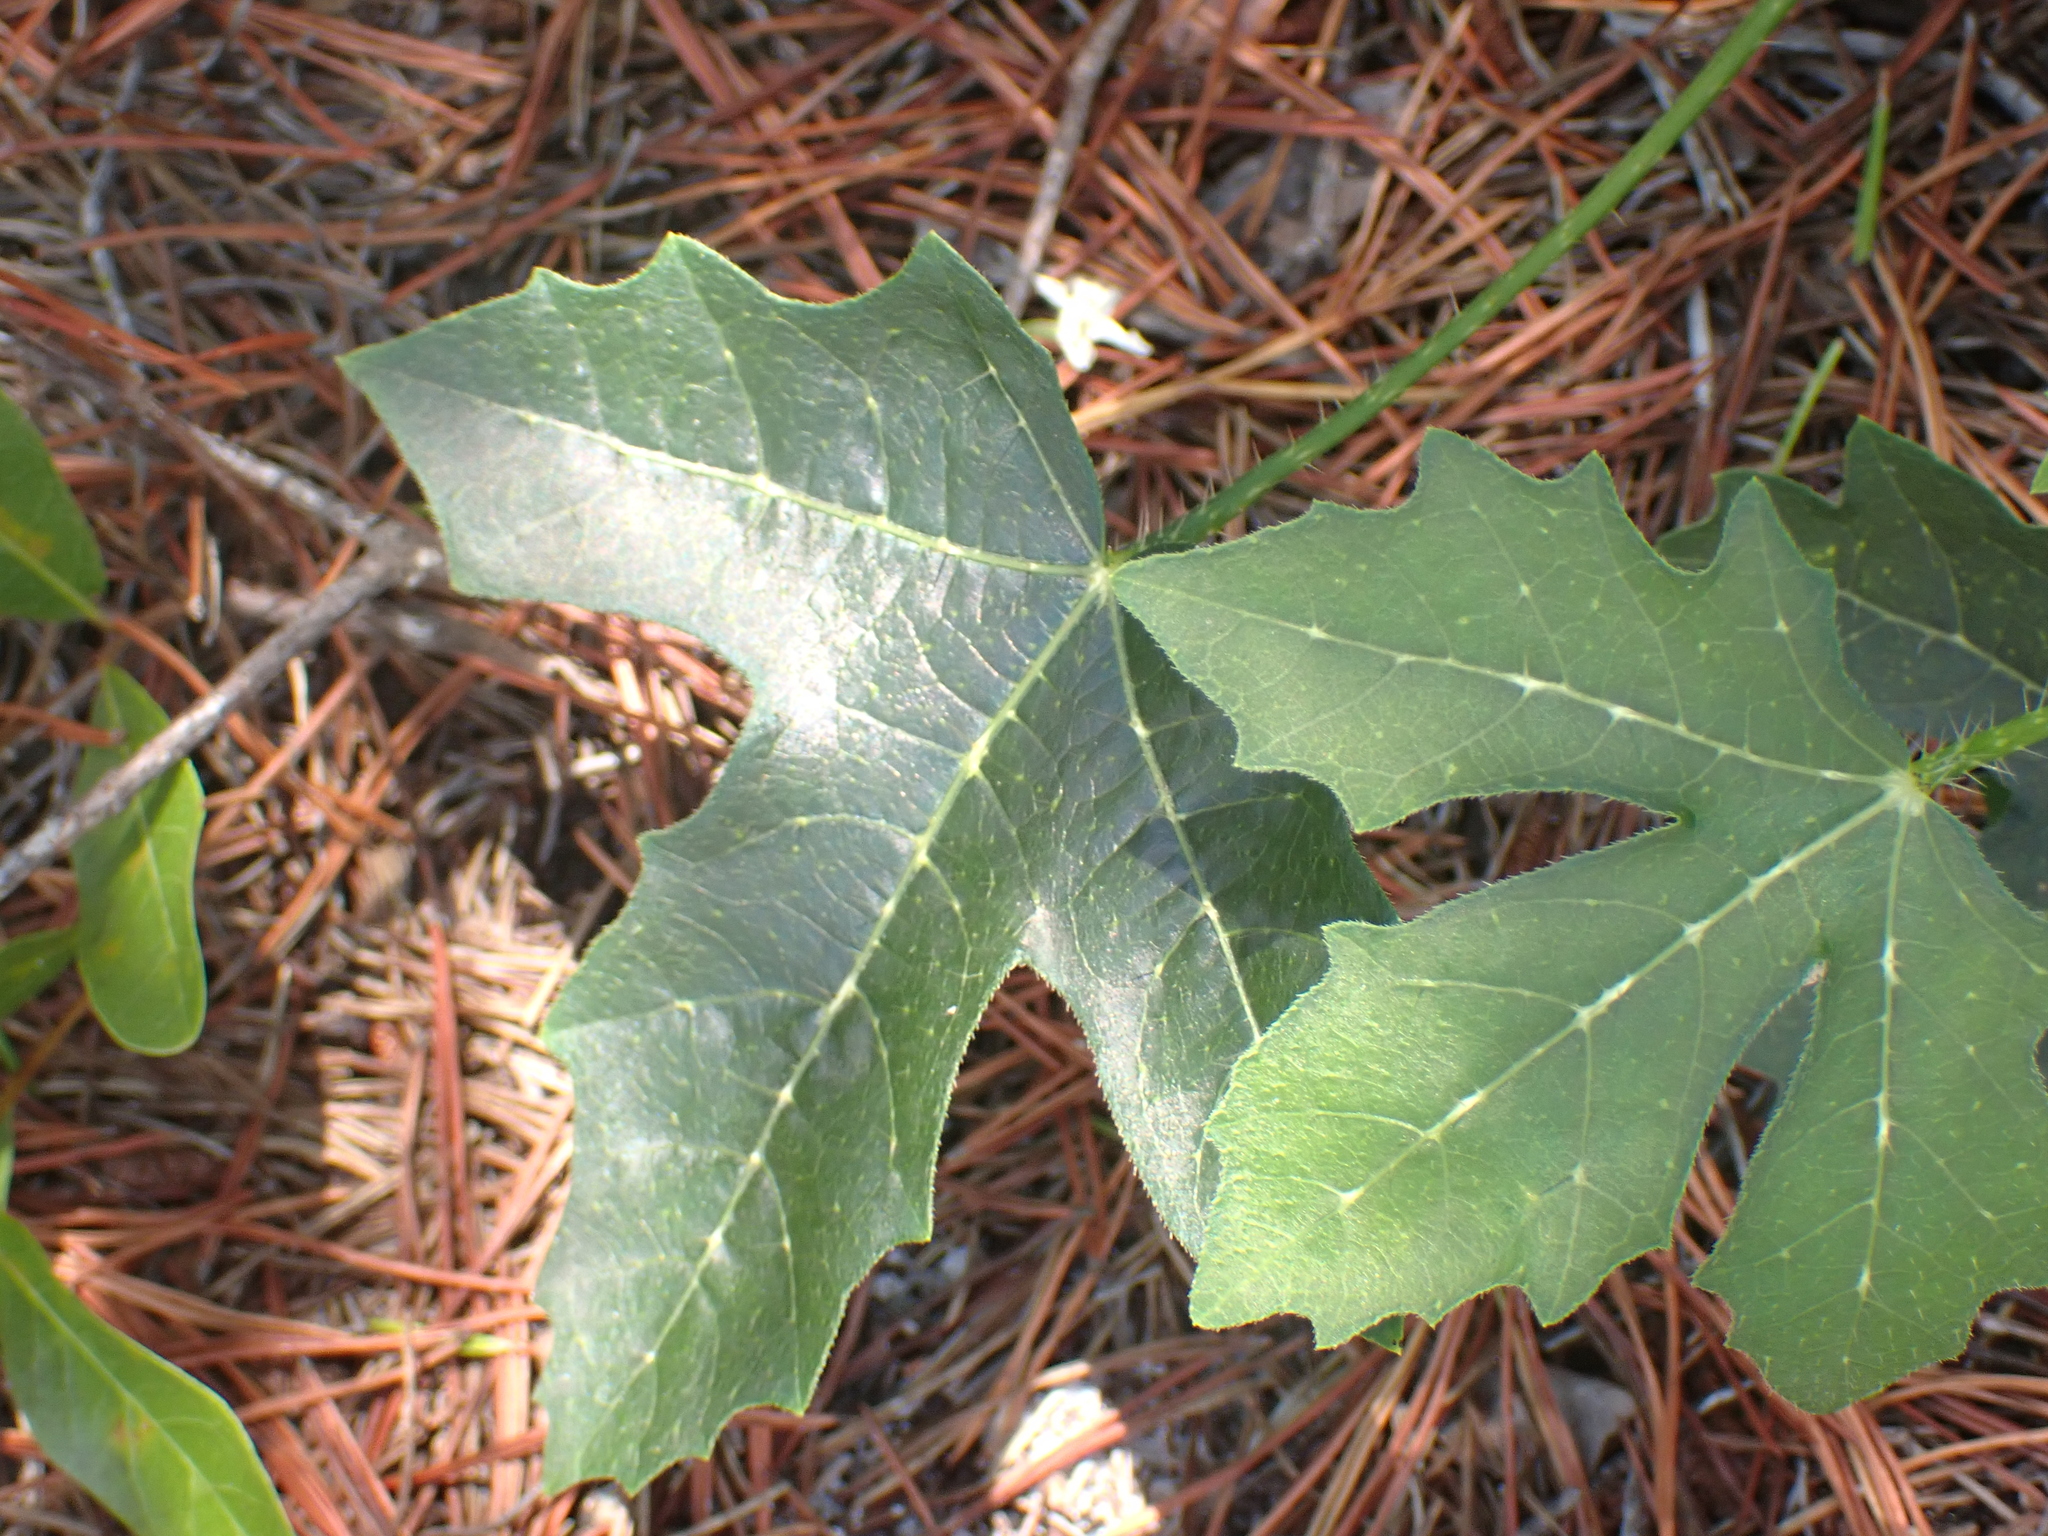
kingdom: Plantae
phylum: Tracheophyta
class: Magnoliopsida
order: Malpighiales
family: Euphorbiaceae
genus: Cnidoscolus
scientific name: Cnidoscolus stimulosus
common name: Bull-nettle
